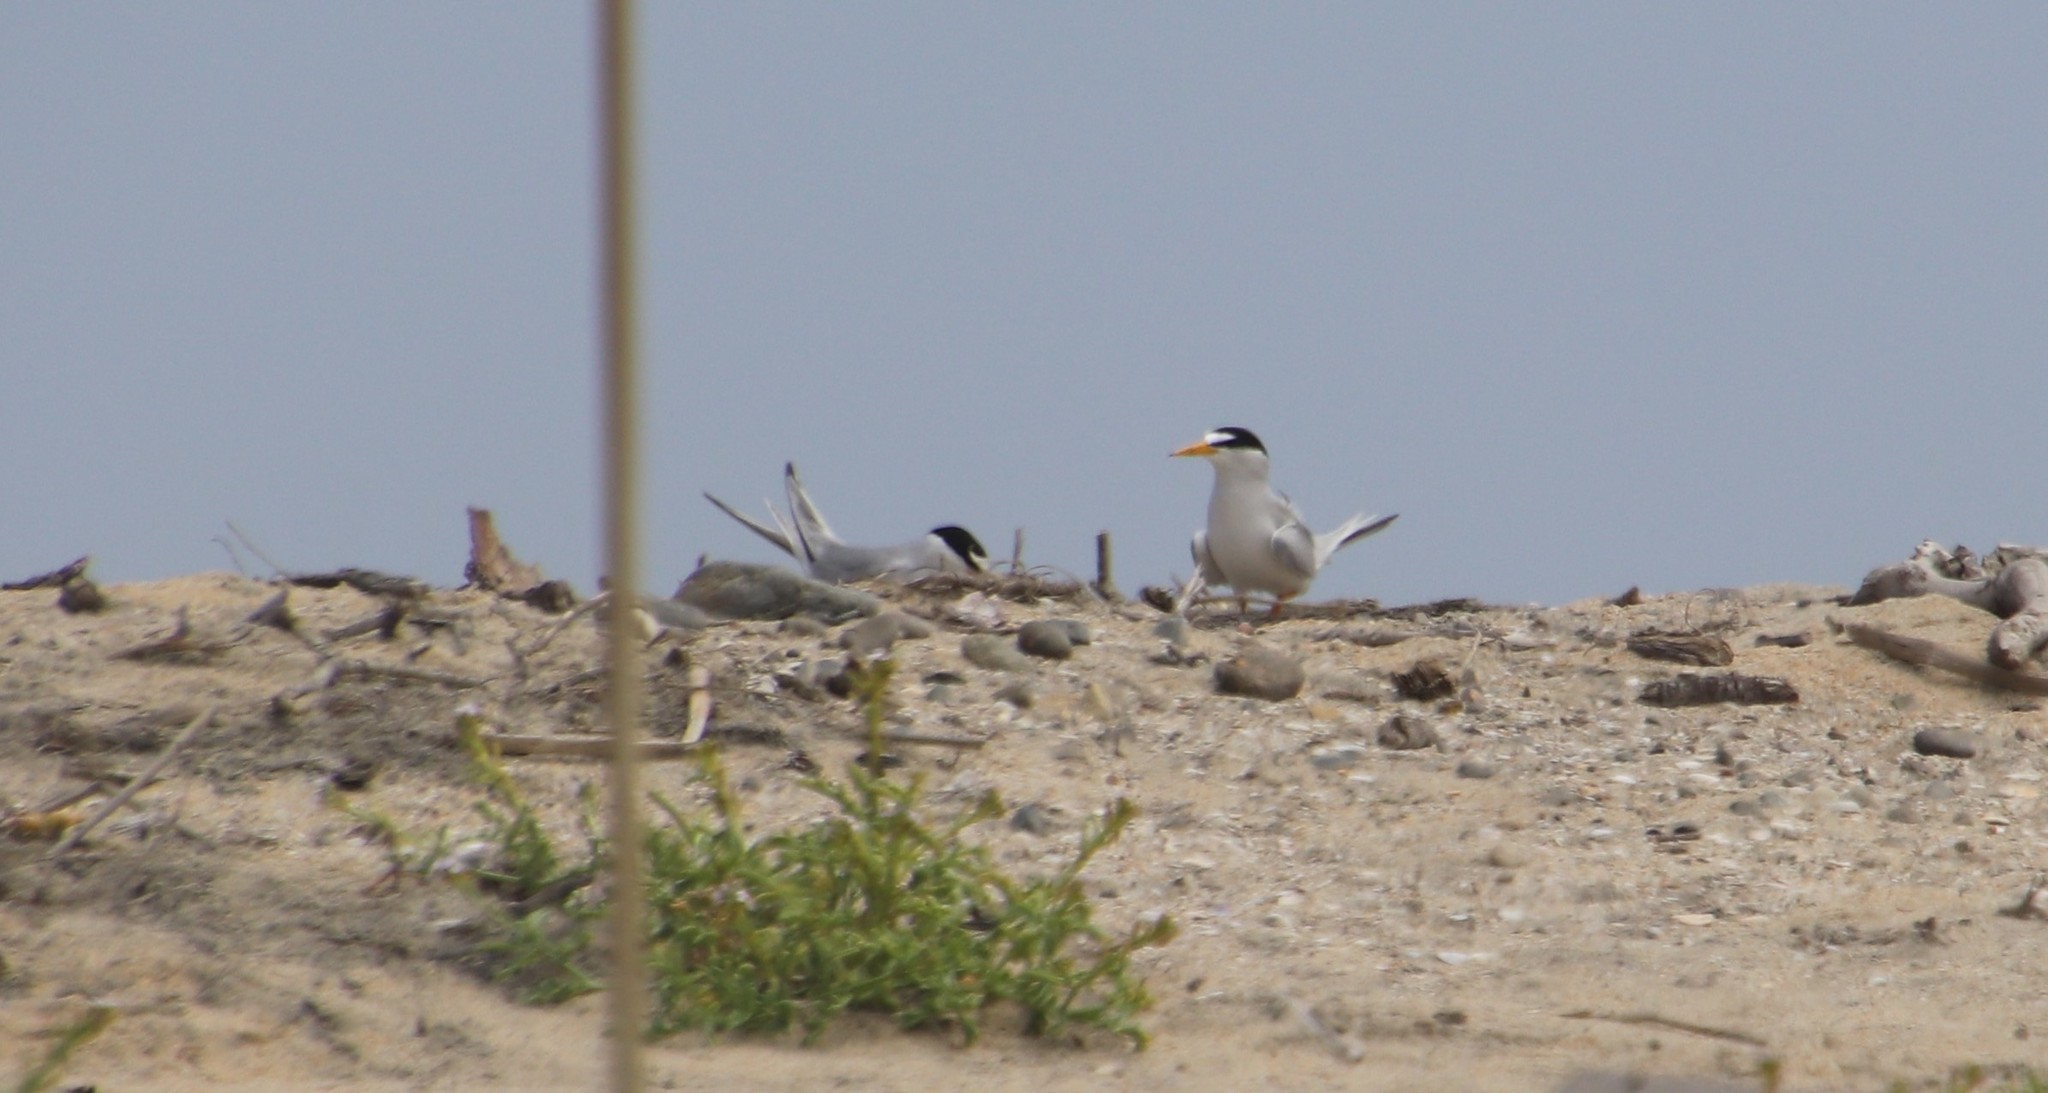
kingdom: Animalia
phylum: Chordata
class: Aves
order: Charadriiformes
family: Laridae
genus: Sternula
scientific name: Sternula antillarum
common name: Least tern
